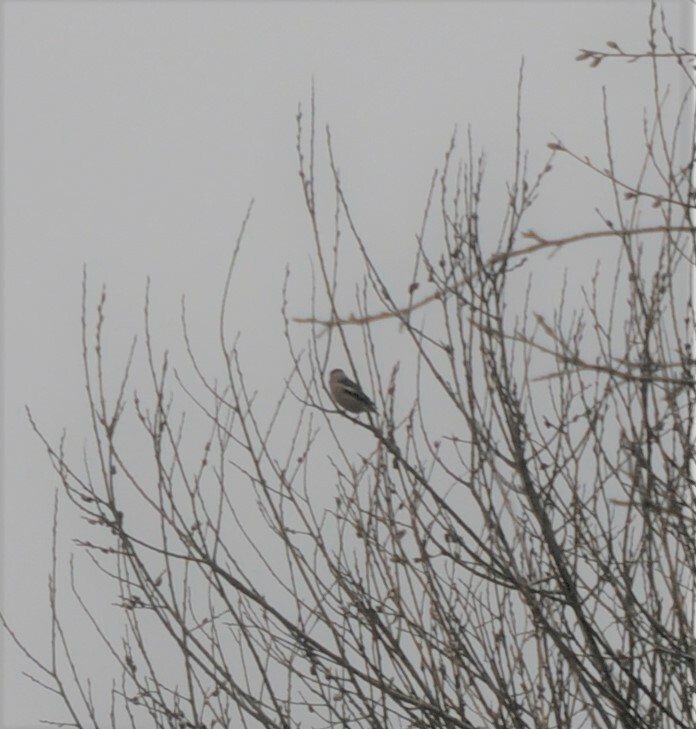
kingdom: Animalia
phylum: Chordata
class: Aves
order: Passeriformes
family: Fringillidae
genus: Coccothraustes
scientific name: Coccothraustes coccothraustes
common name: Hawfinch
